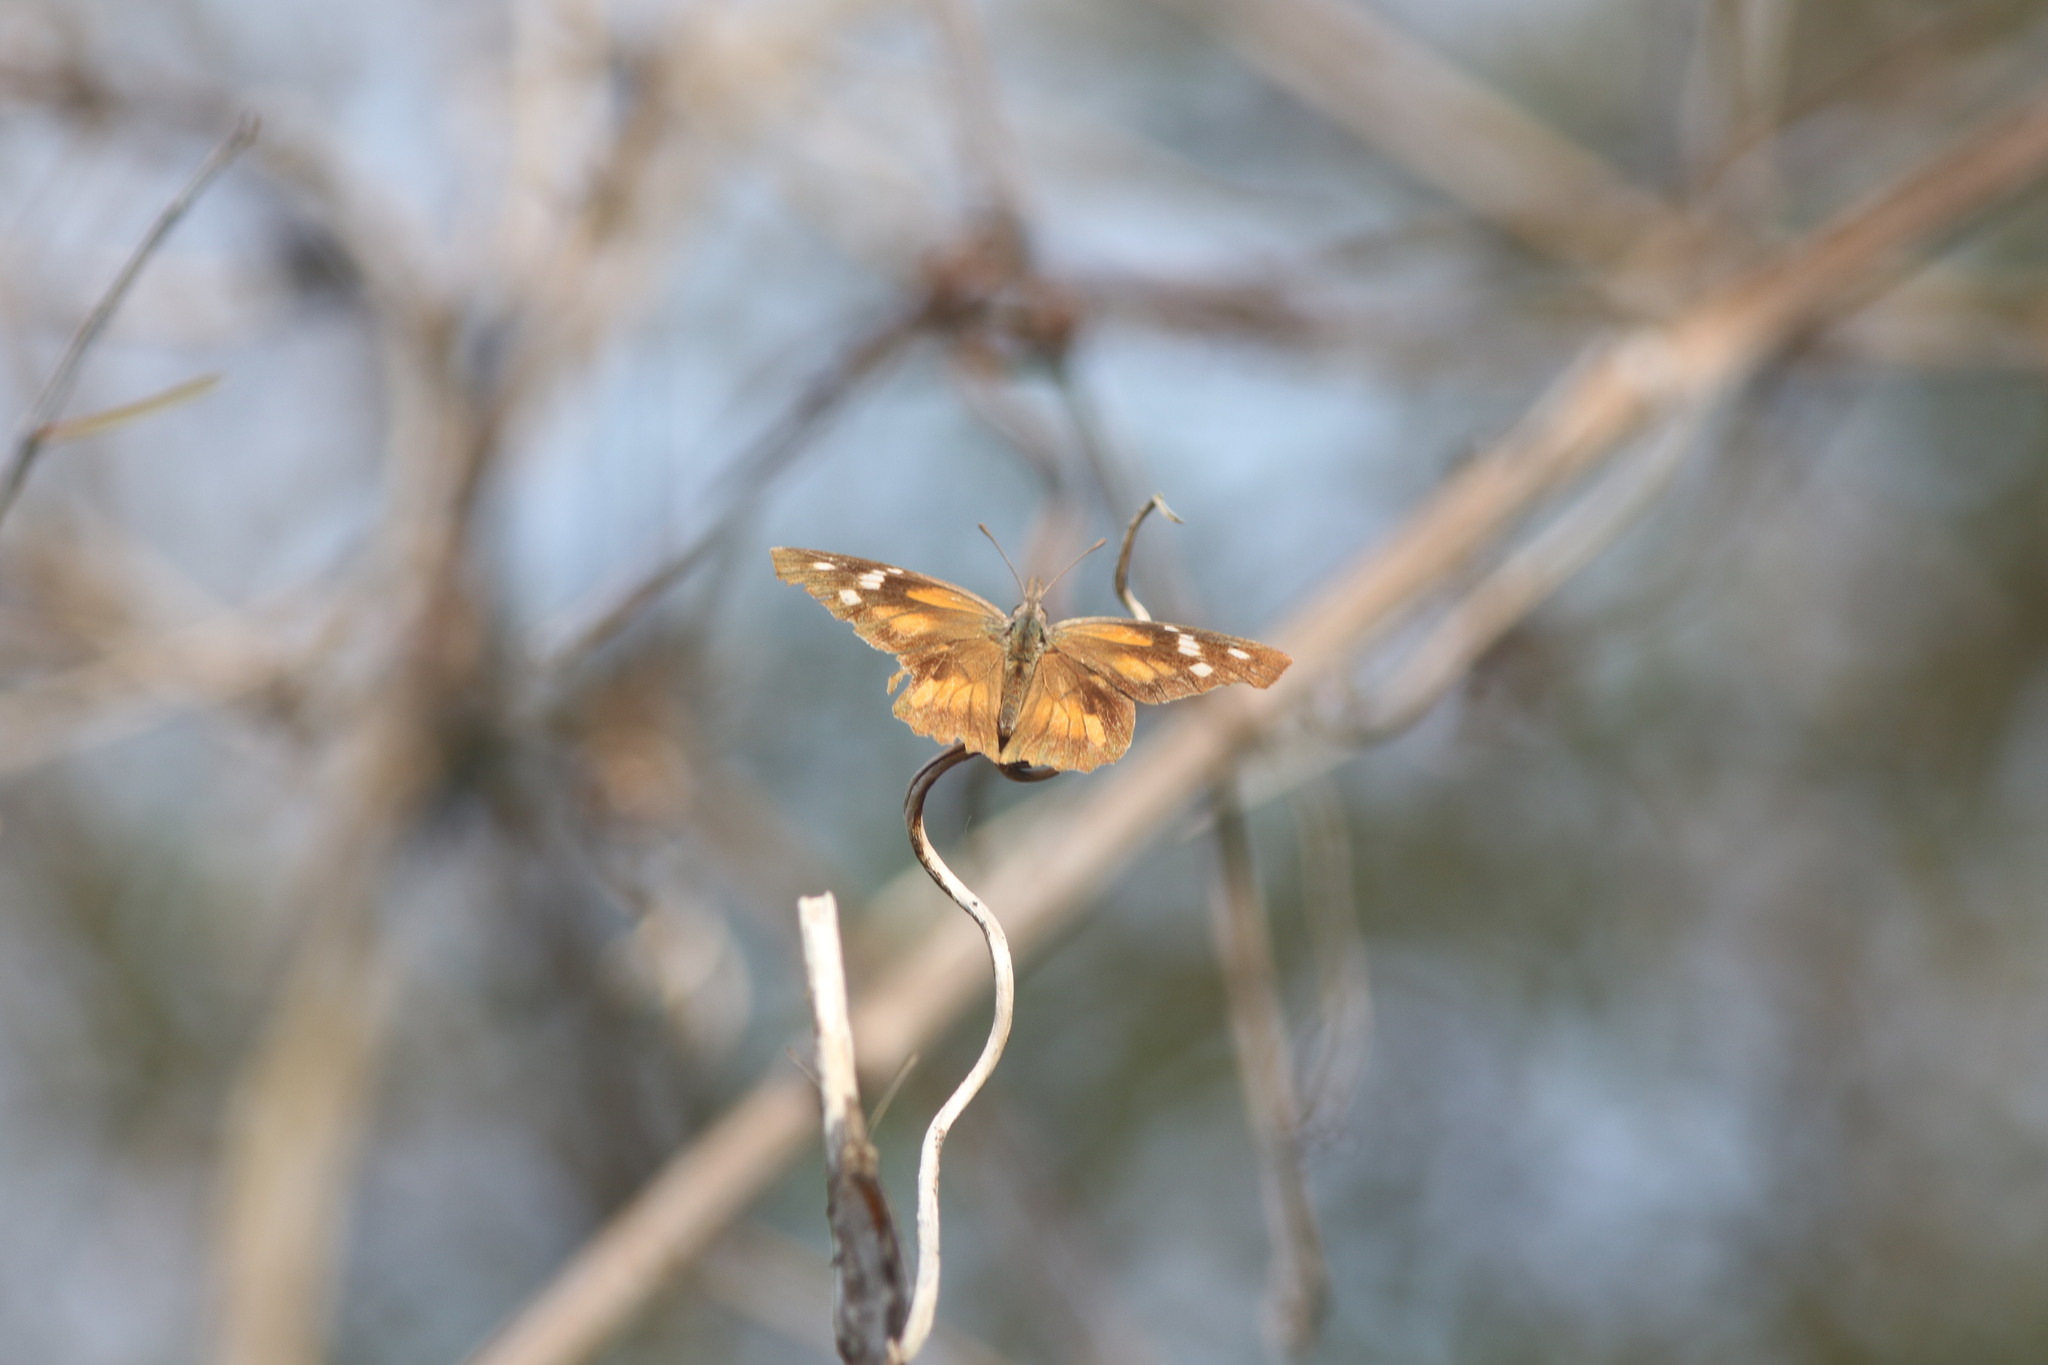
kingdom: Animalia
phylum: Arthropoda
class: Insecta
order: Lepidoptera
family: Nymphalidae
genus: Libytheana
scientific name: Libytheana carinenta
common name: American snout
